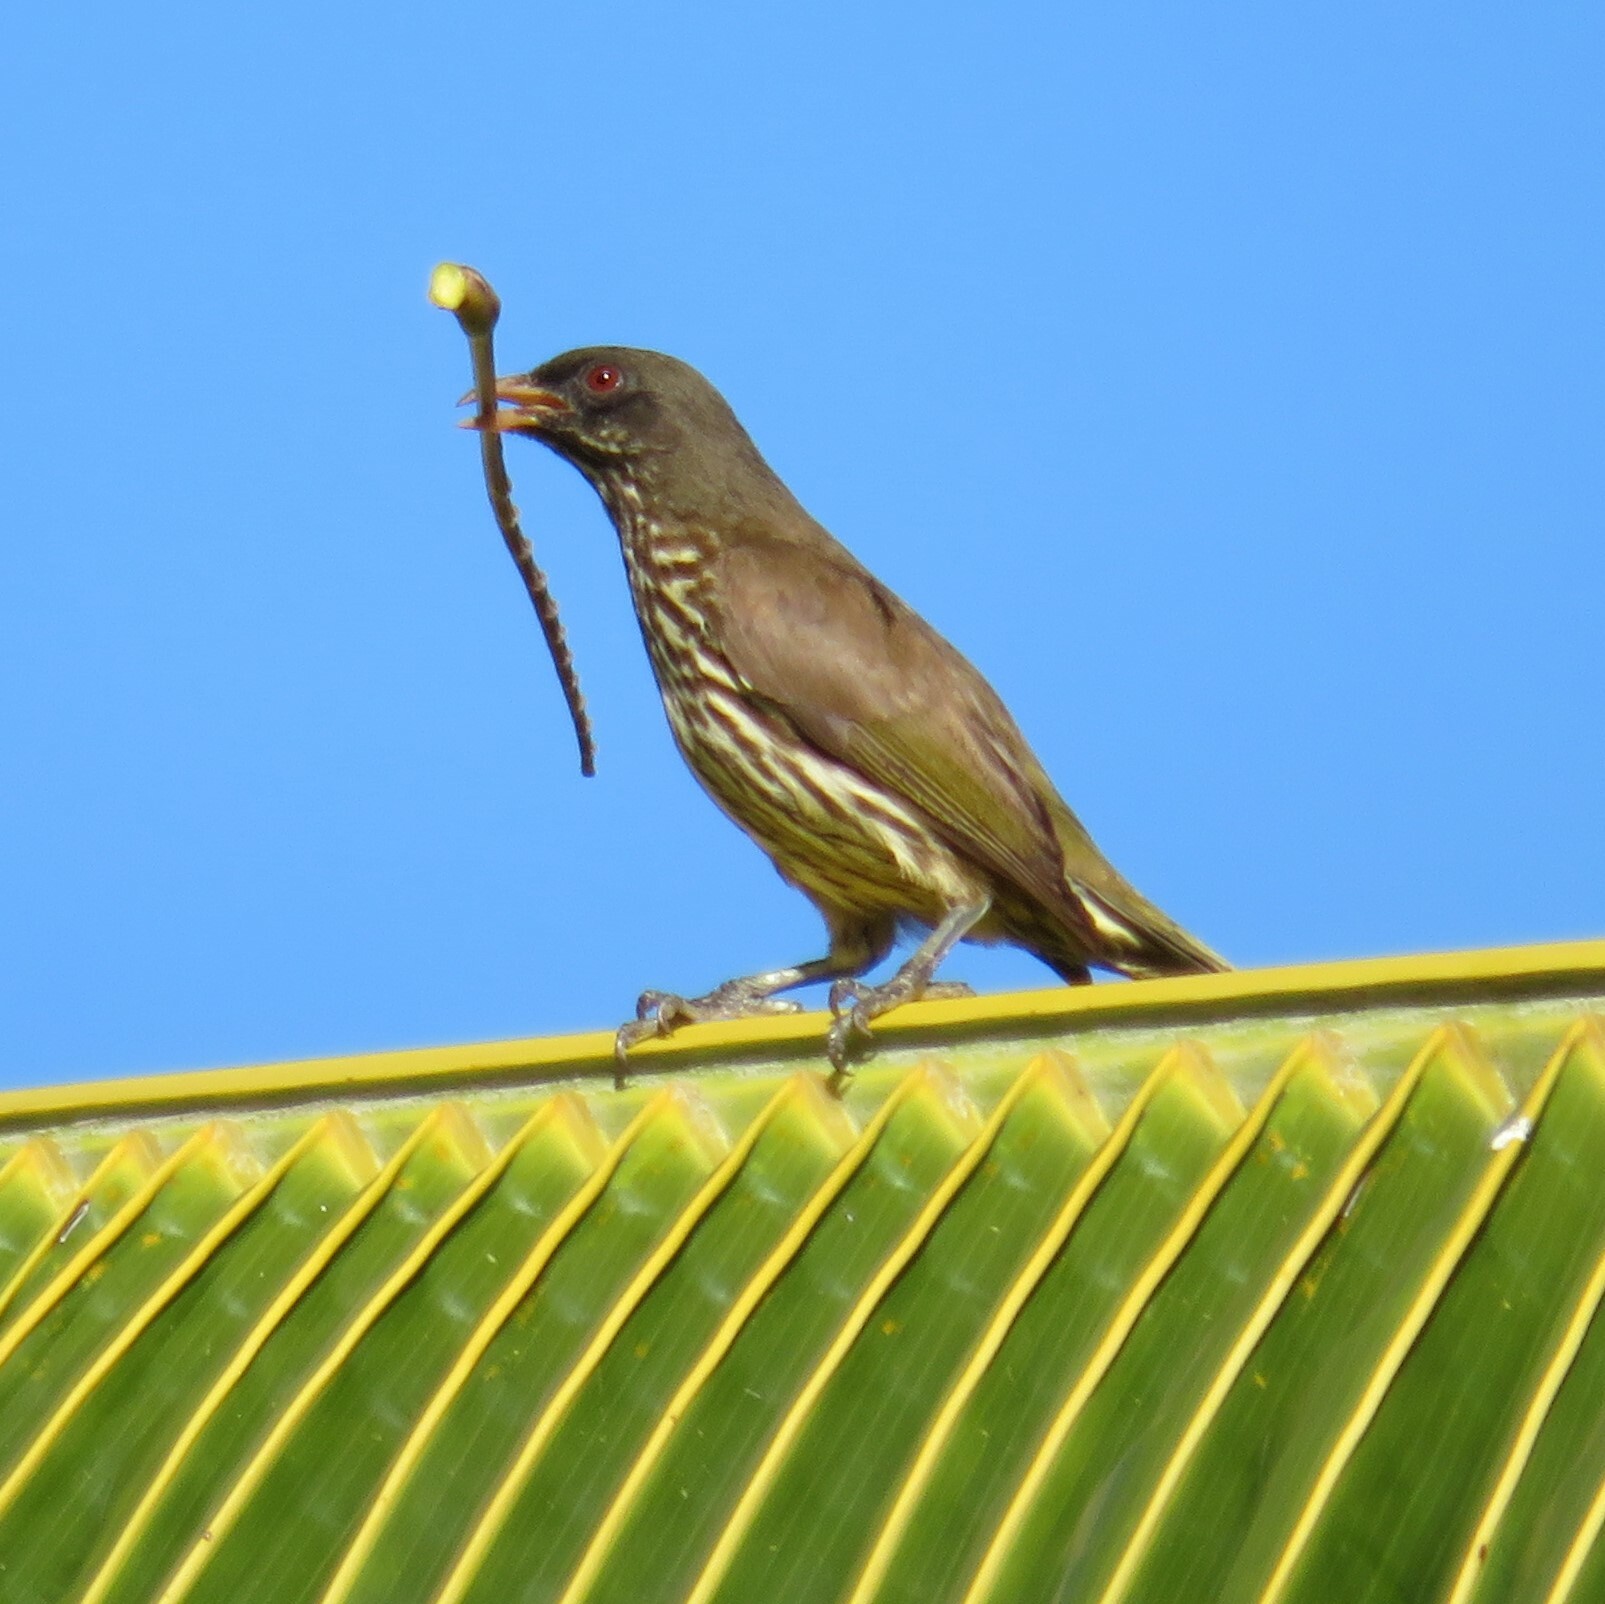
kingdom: Animalia
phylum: Chordata
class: Aves
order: Passeriformes
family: Dulidae
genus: Dulus
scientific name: Dulus dominicus
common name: Palmchat
